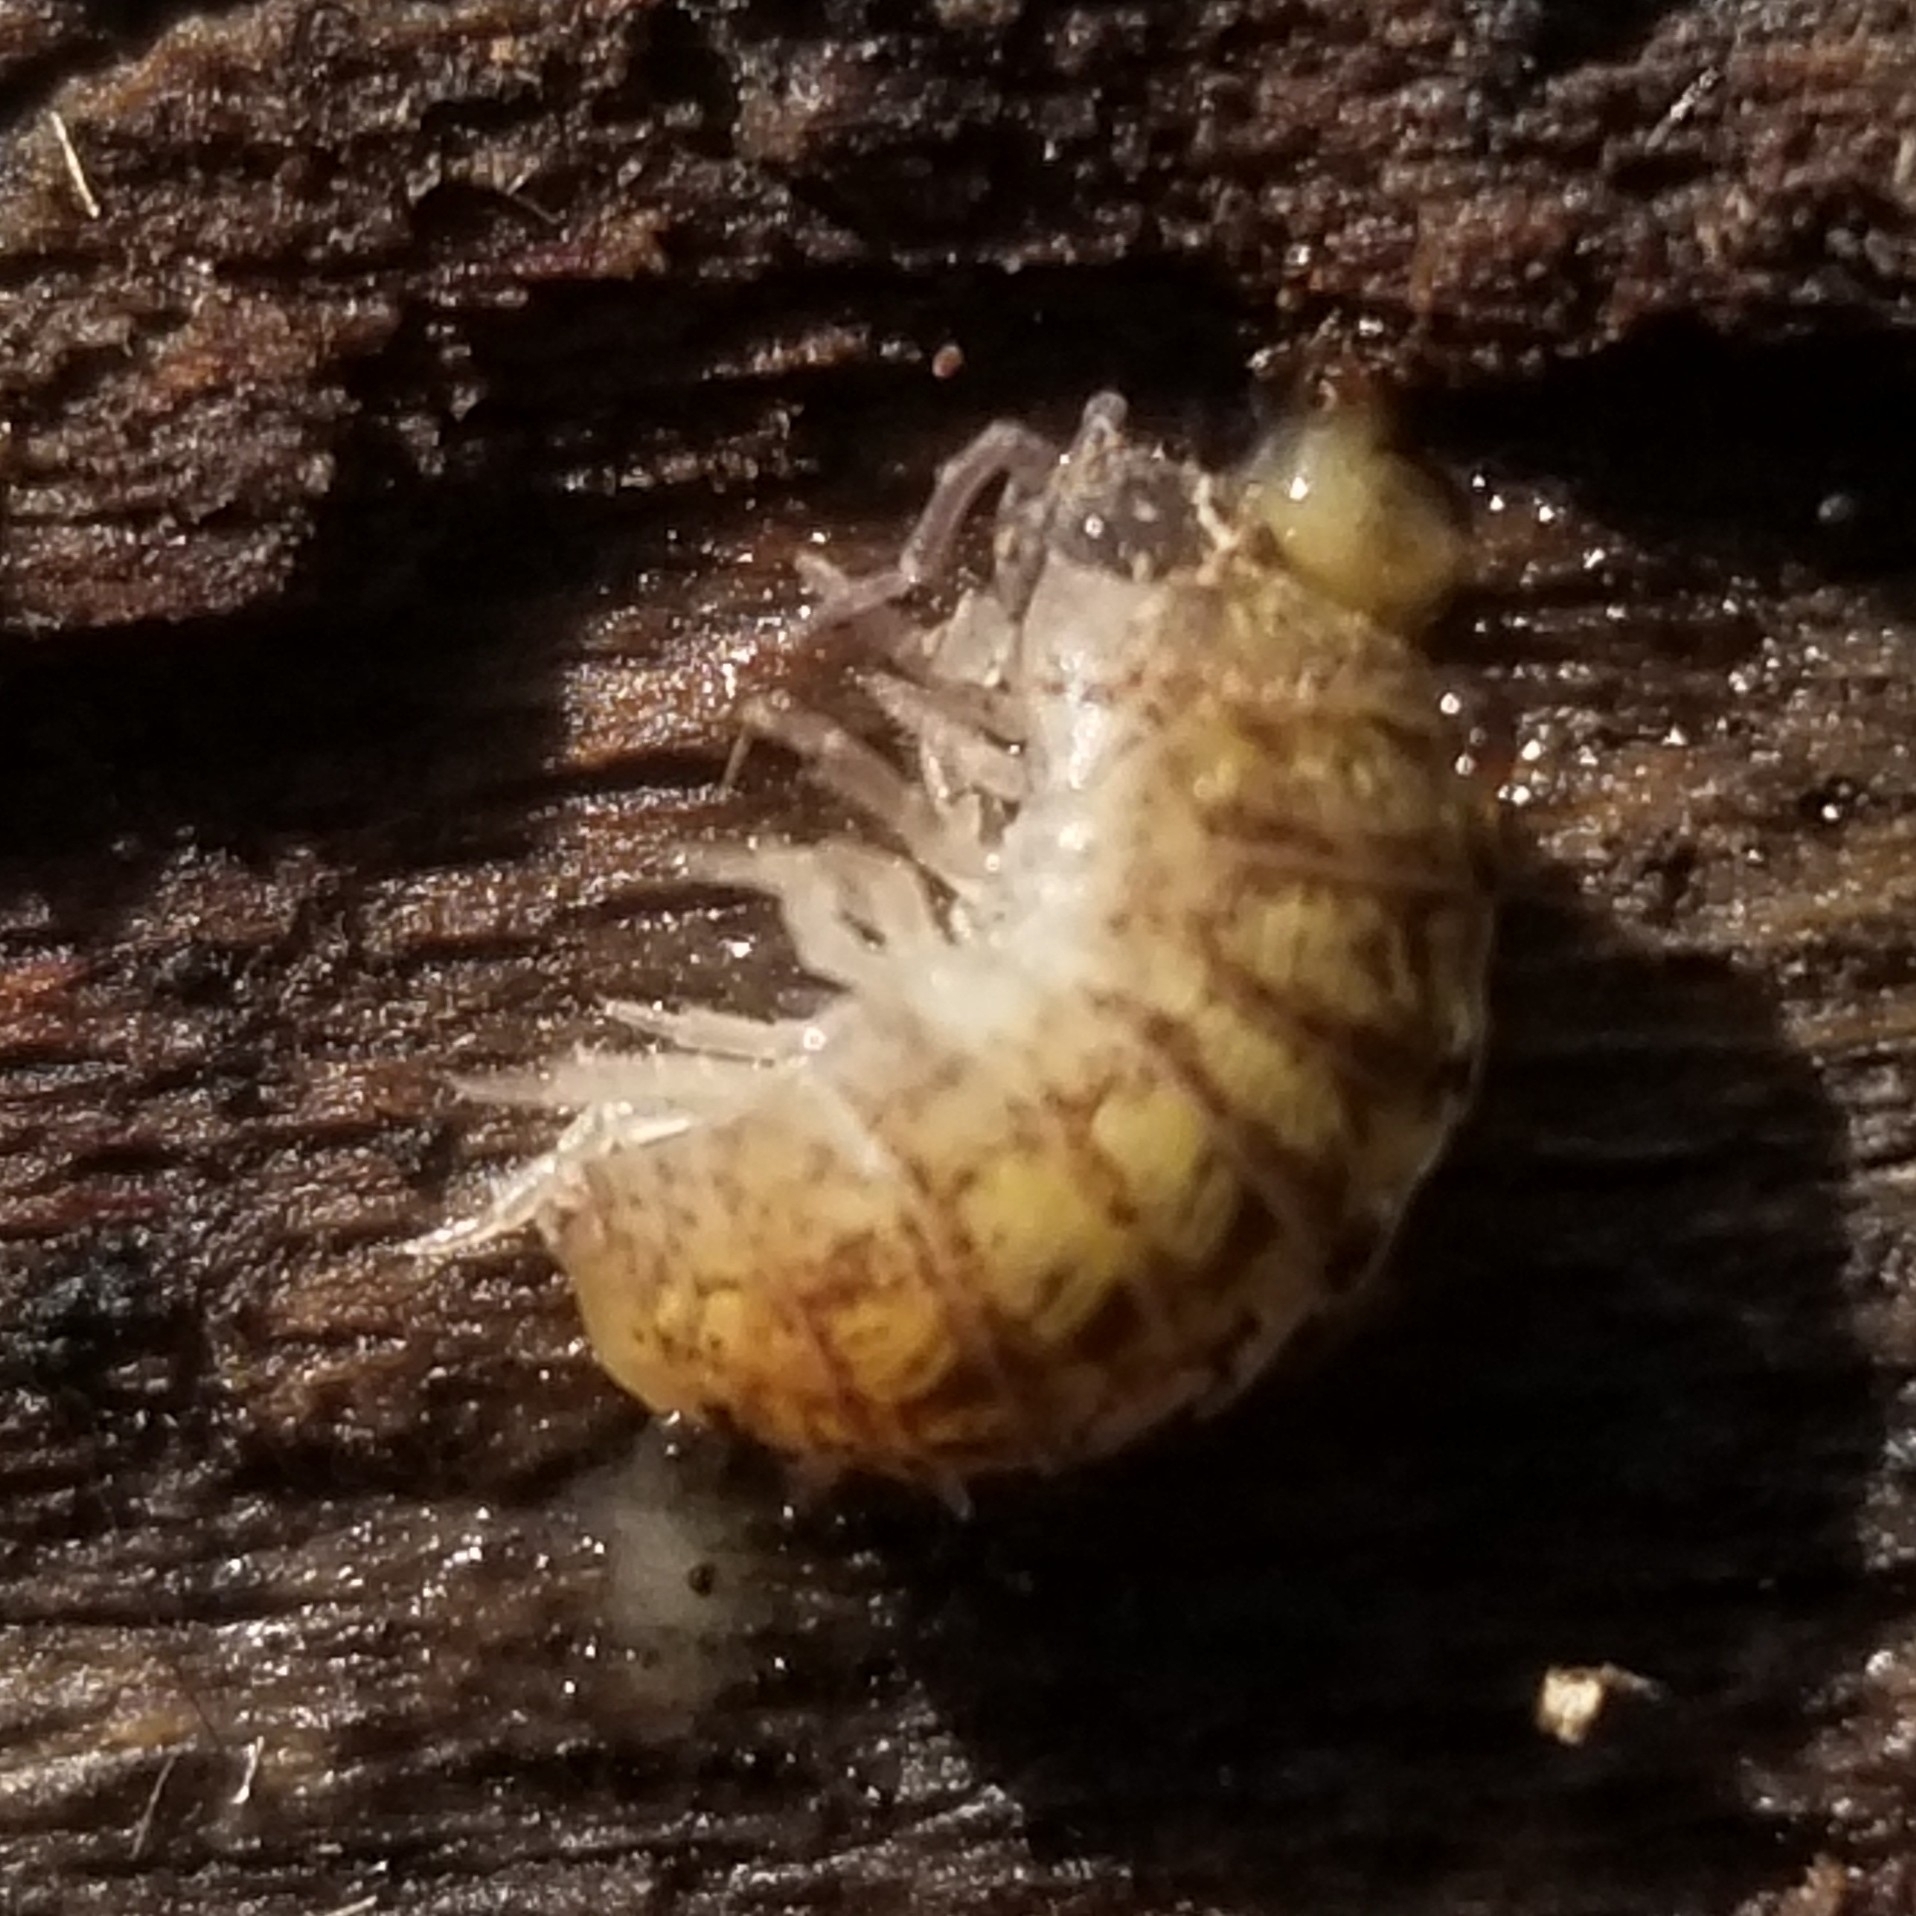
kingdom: Animalia
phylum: Arthropoda
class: Malacostraca
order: Isopoda
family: Armadillidiidae
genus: Armadillidium
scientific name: Armadillidium vulgare
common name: Common pill woodlouse
